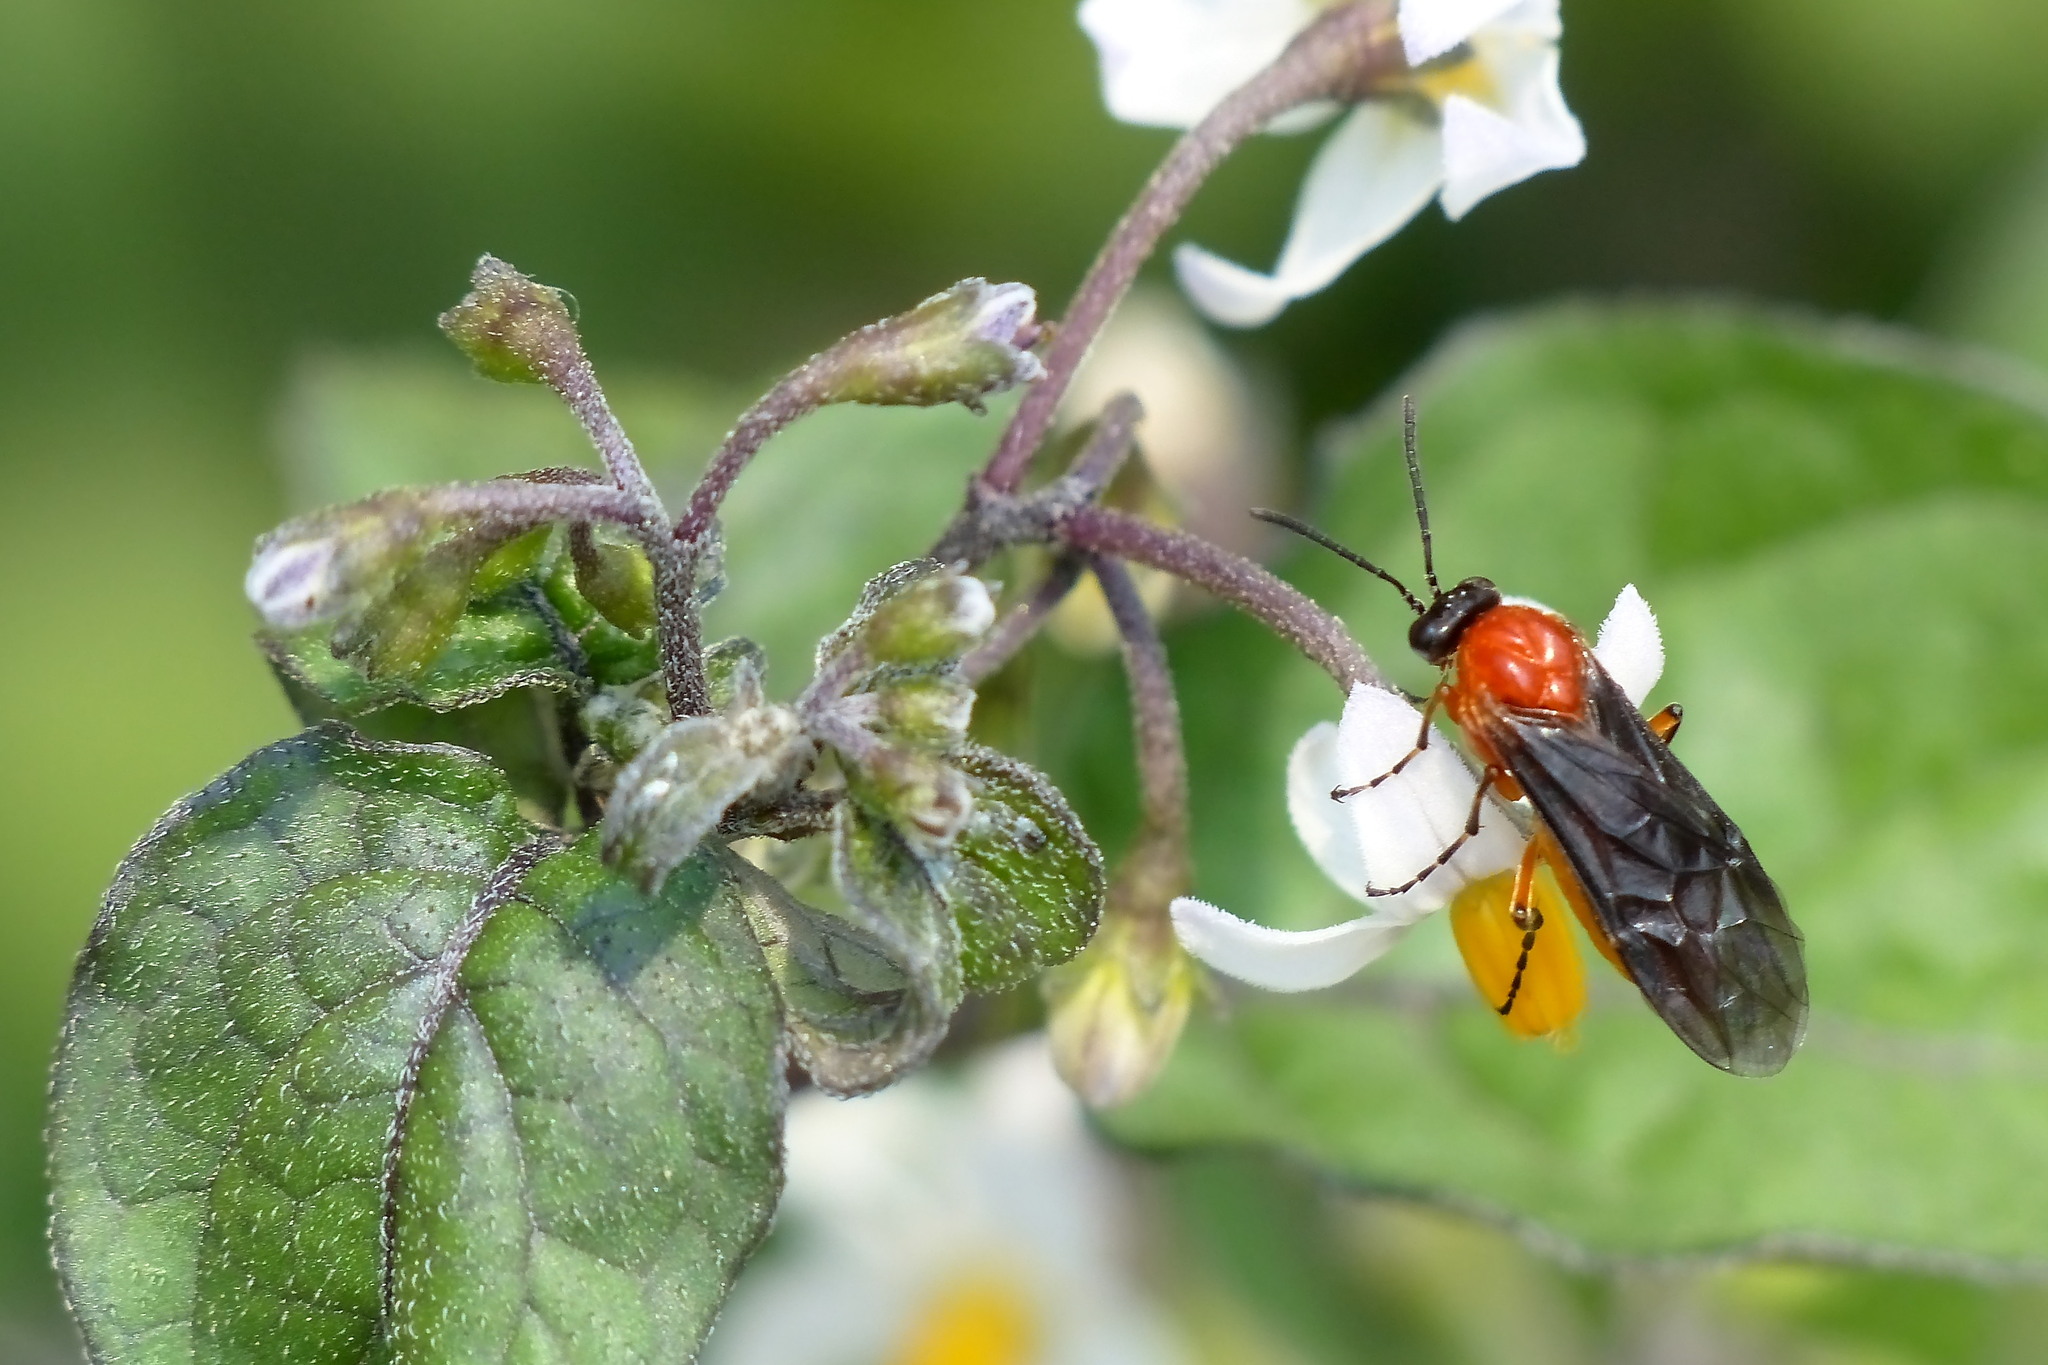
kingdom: Animalia
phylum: Arthropoda
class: Insecta
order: Hymenoptera
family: Tenthredinidae
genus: Athalia
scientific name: Athalia japonica
